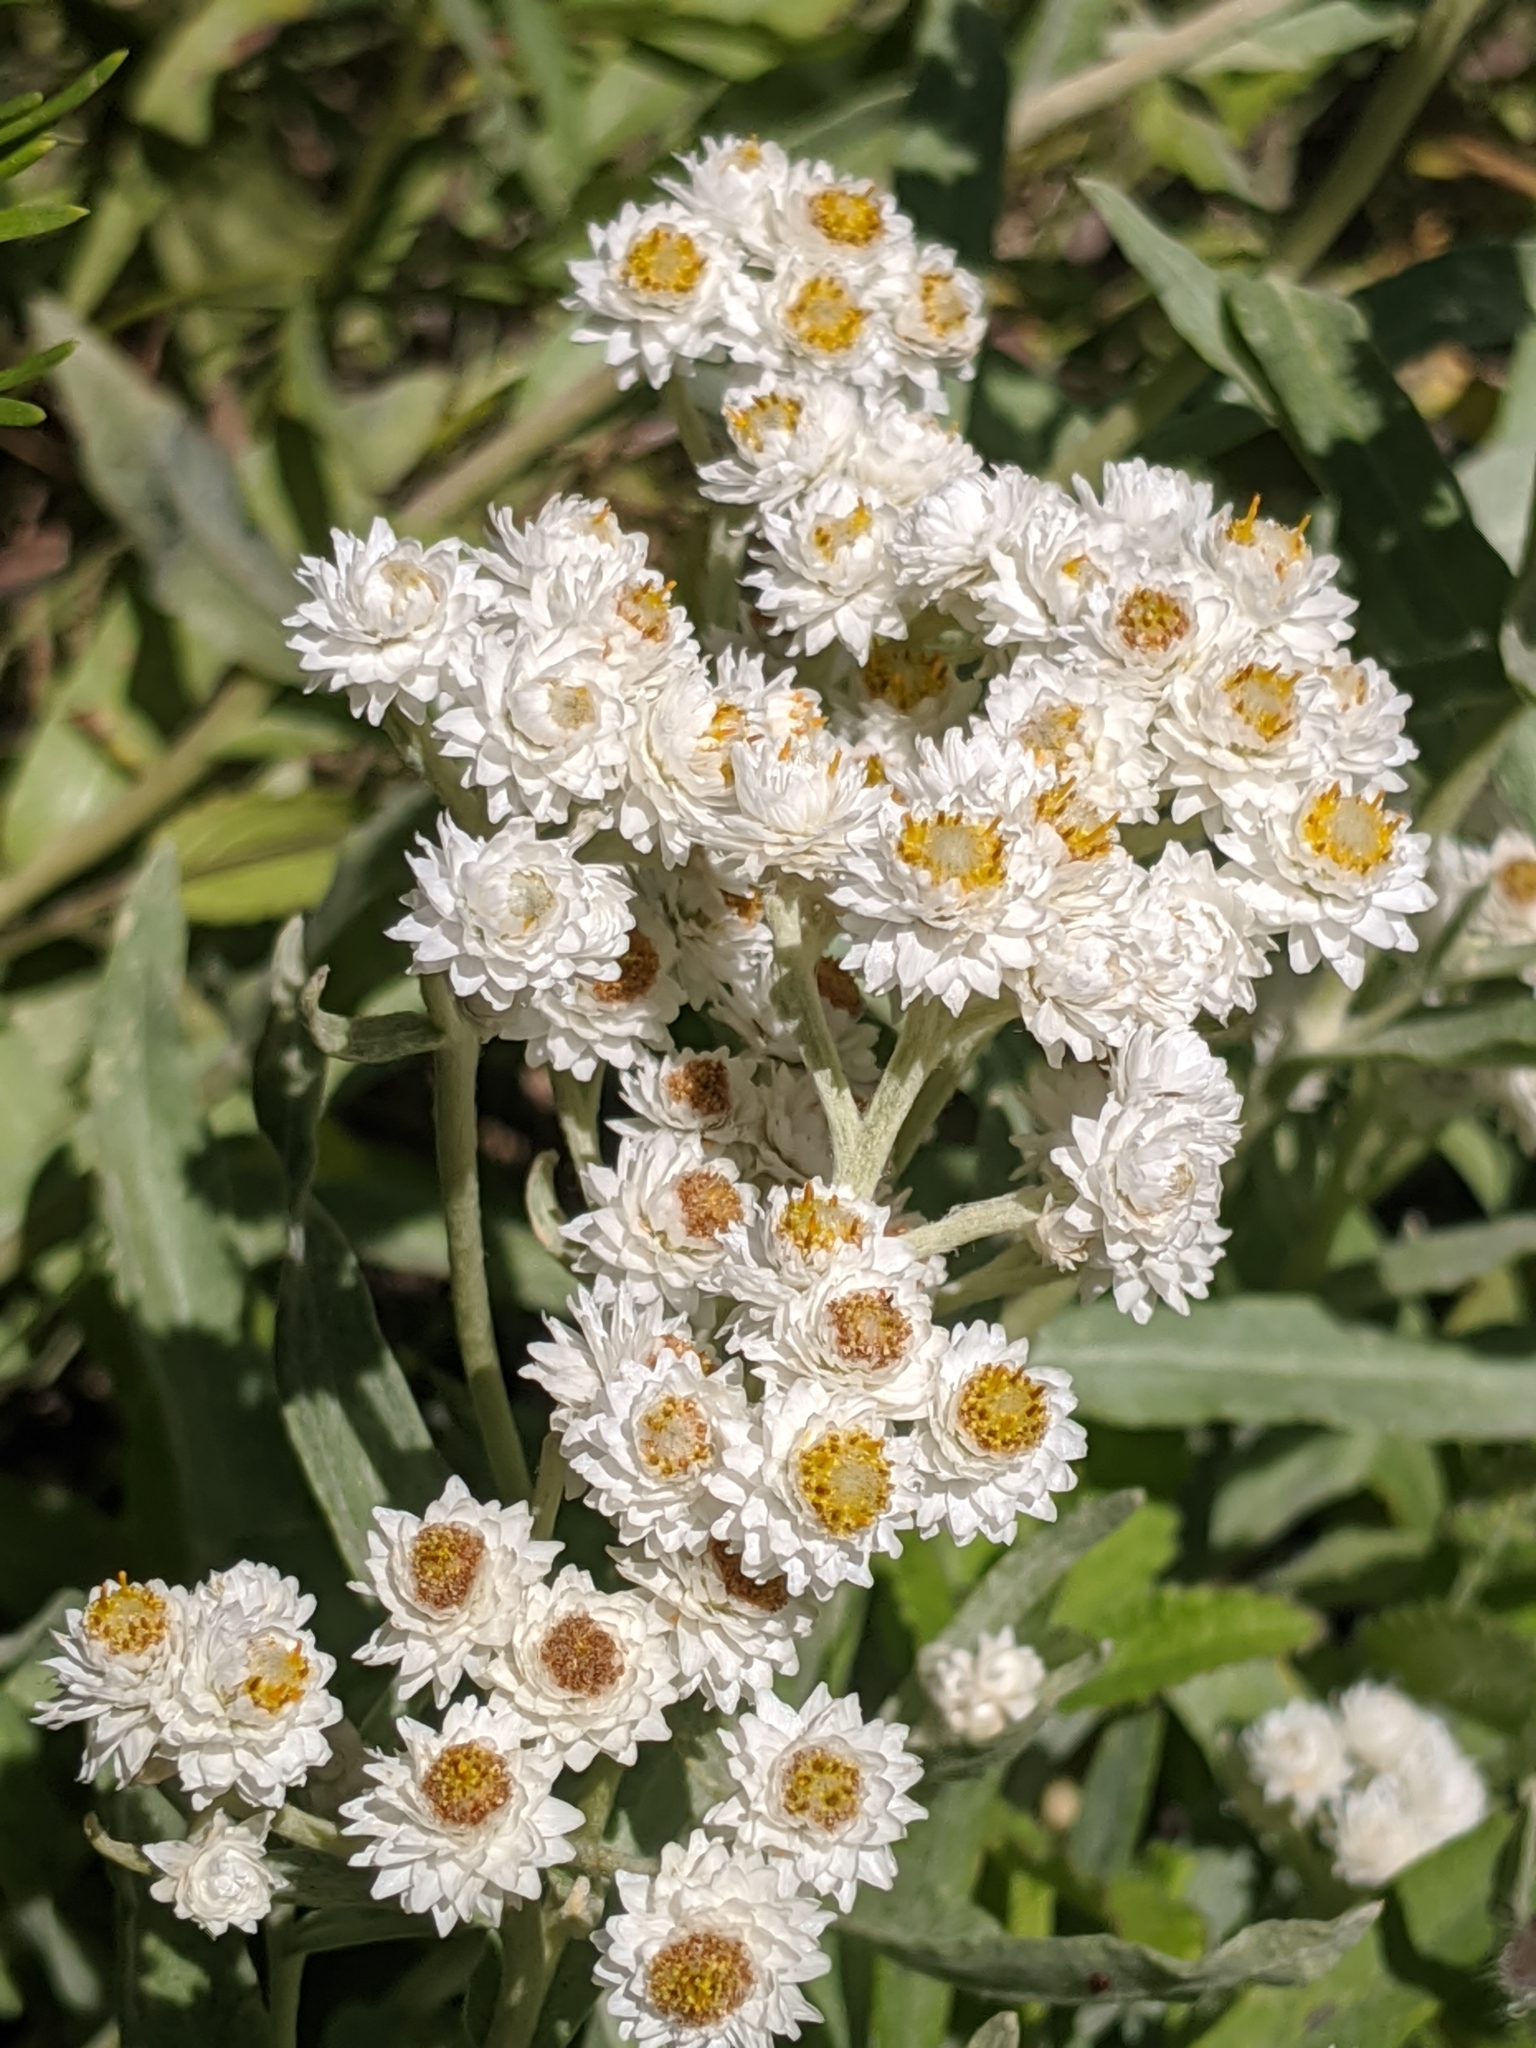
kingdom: Plantae
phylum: Tracheophyta
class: Magnoliopsida
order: Asterales
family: Asteraceae
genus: Anaphalis
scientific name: Anaphalis margaritacea
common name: Pearly everlasting
